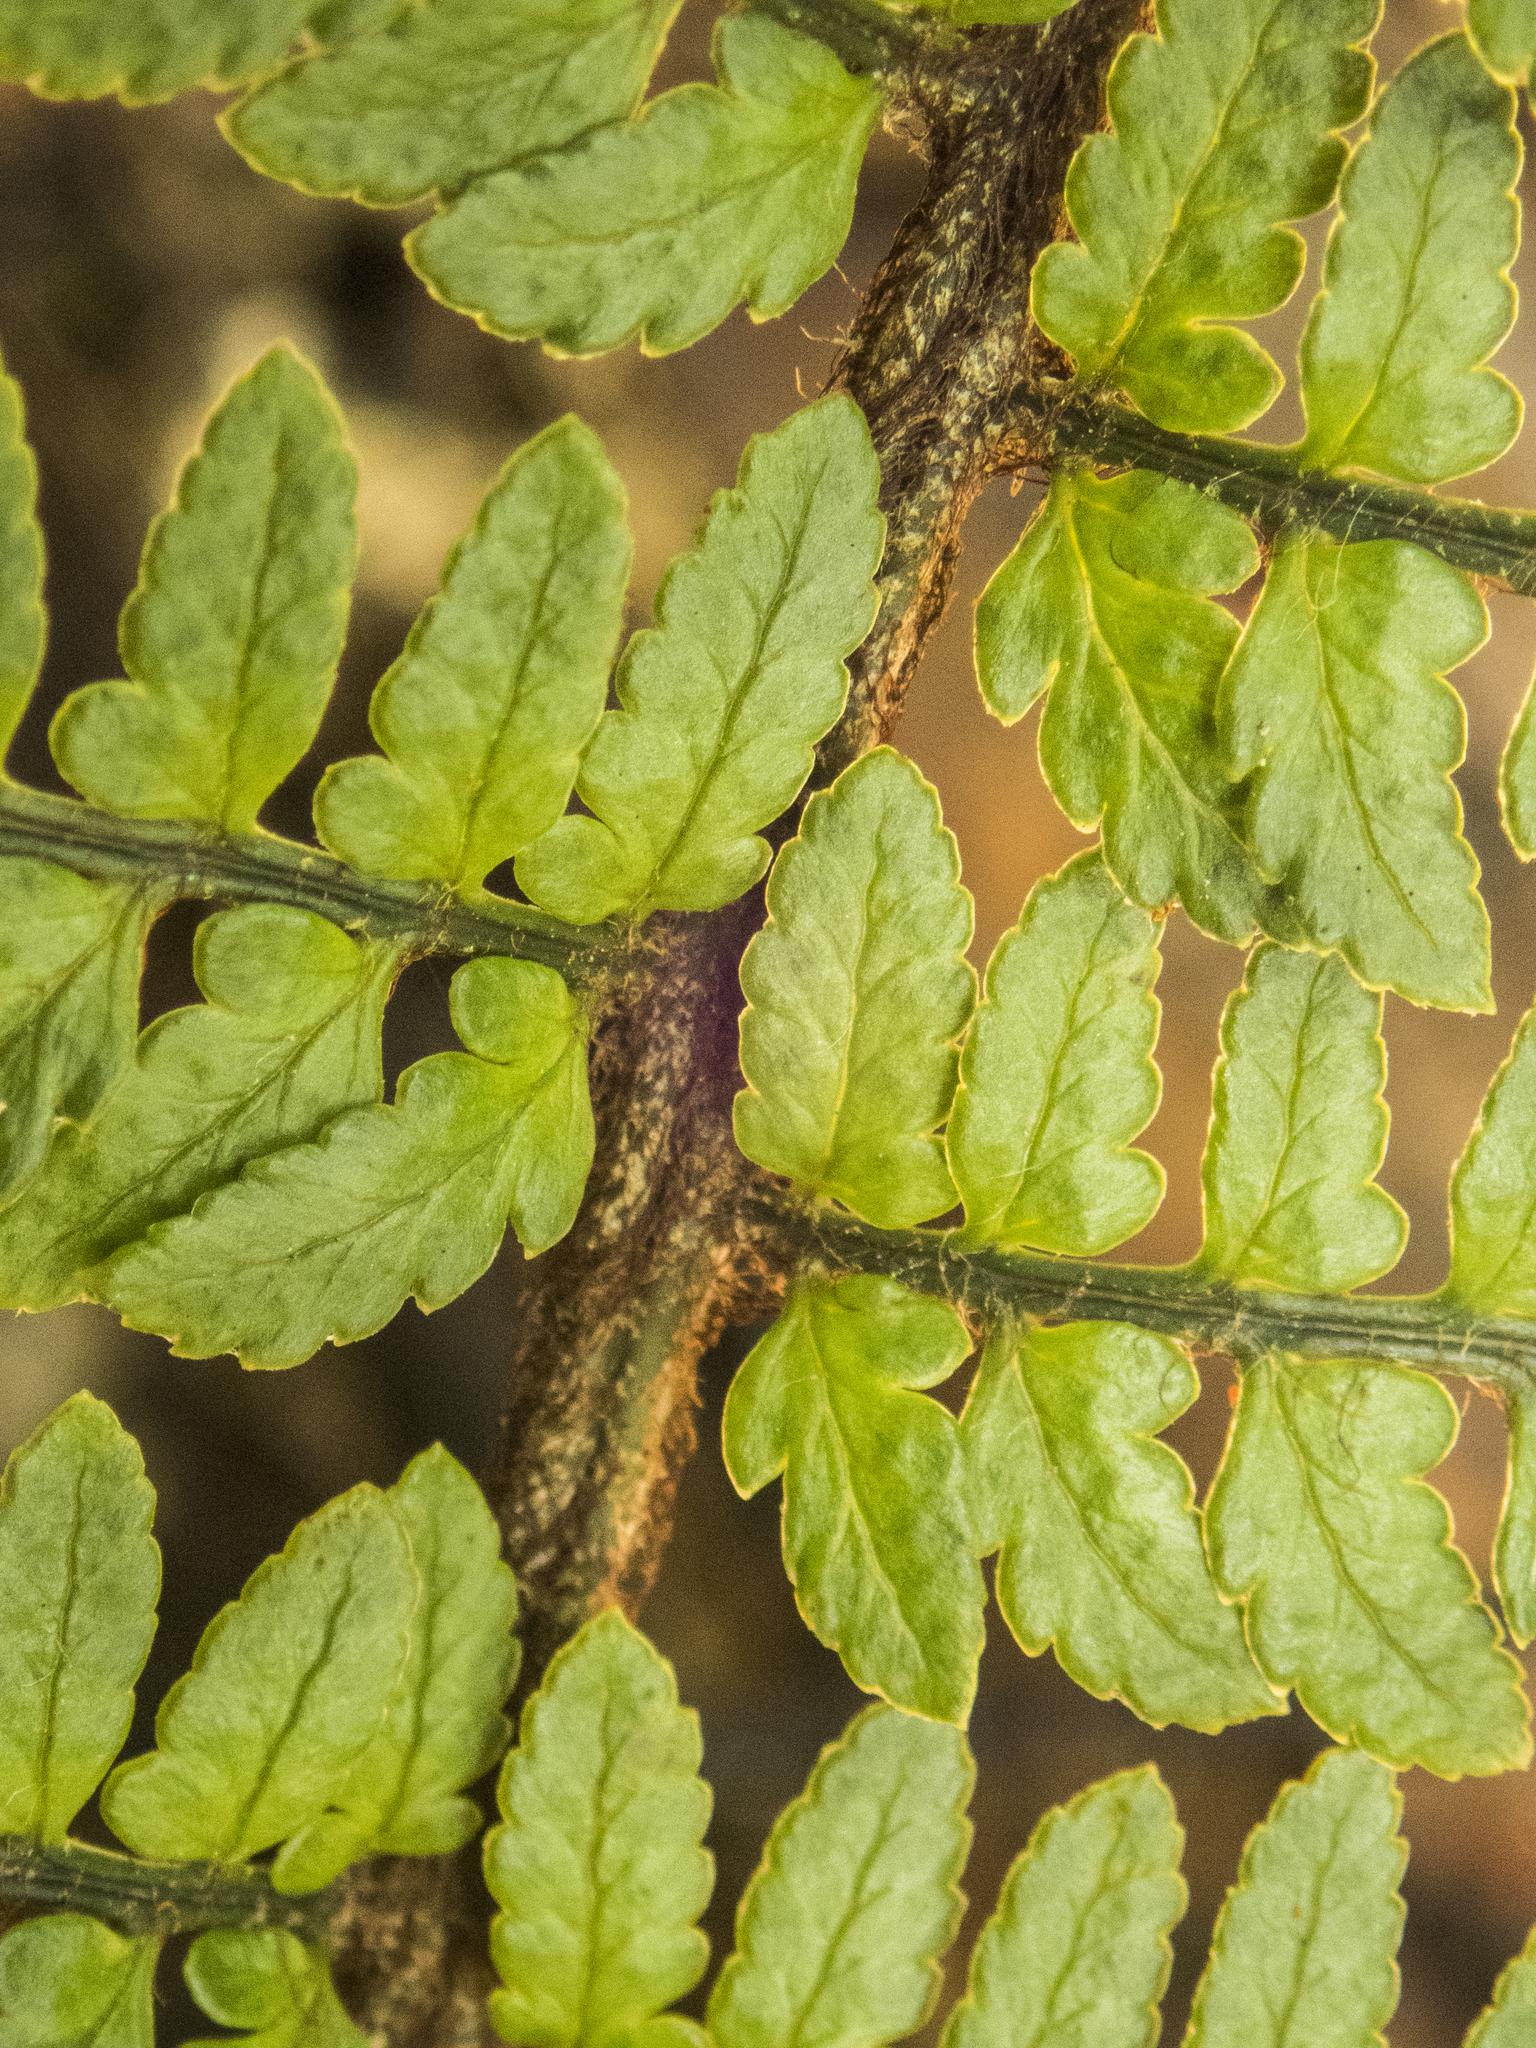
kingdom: Plantae
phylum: Tracheophyta
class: Polypodiopsida
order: Polypodiales
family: Dryopteridaceae
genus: Polystichum
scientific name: Polystichum wawranum
